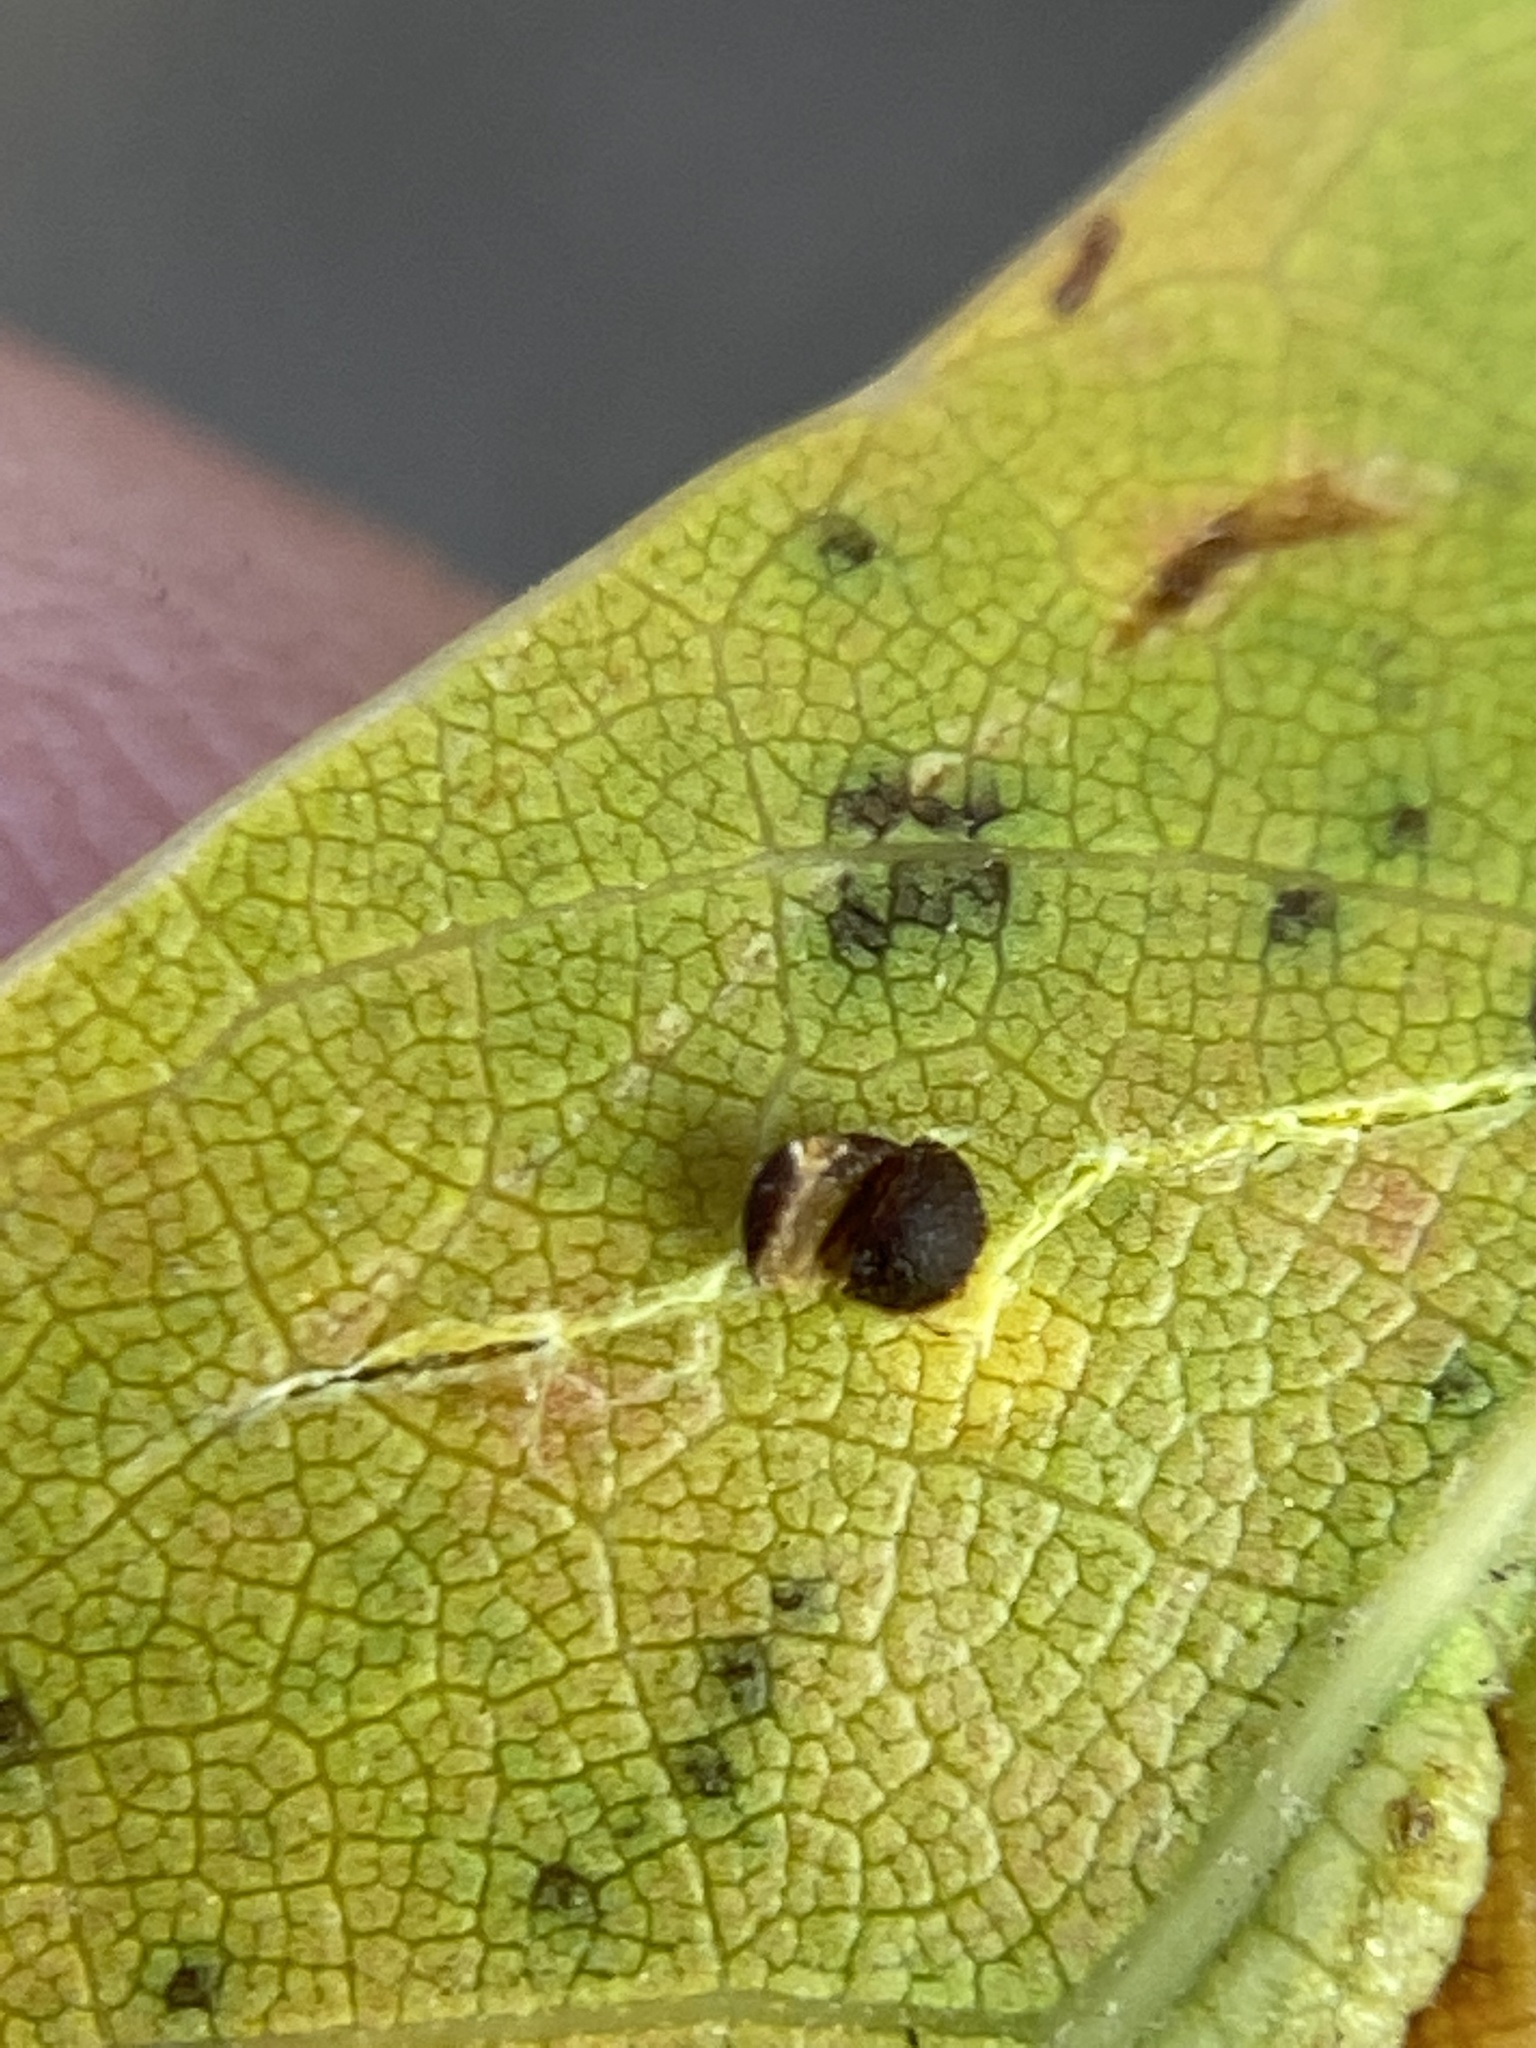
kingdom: Animalia
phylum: Arthropoda
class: Insecta
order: Diptera
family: Cecidomyiidae
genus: Polystepha
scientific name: Polystepha globosa
